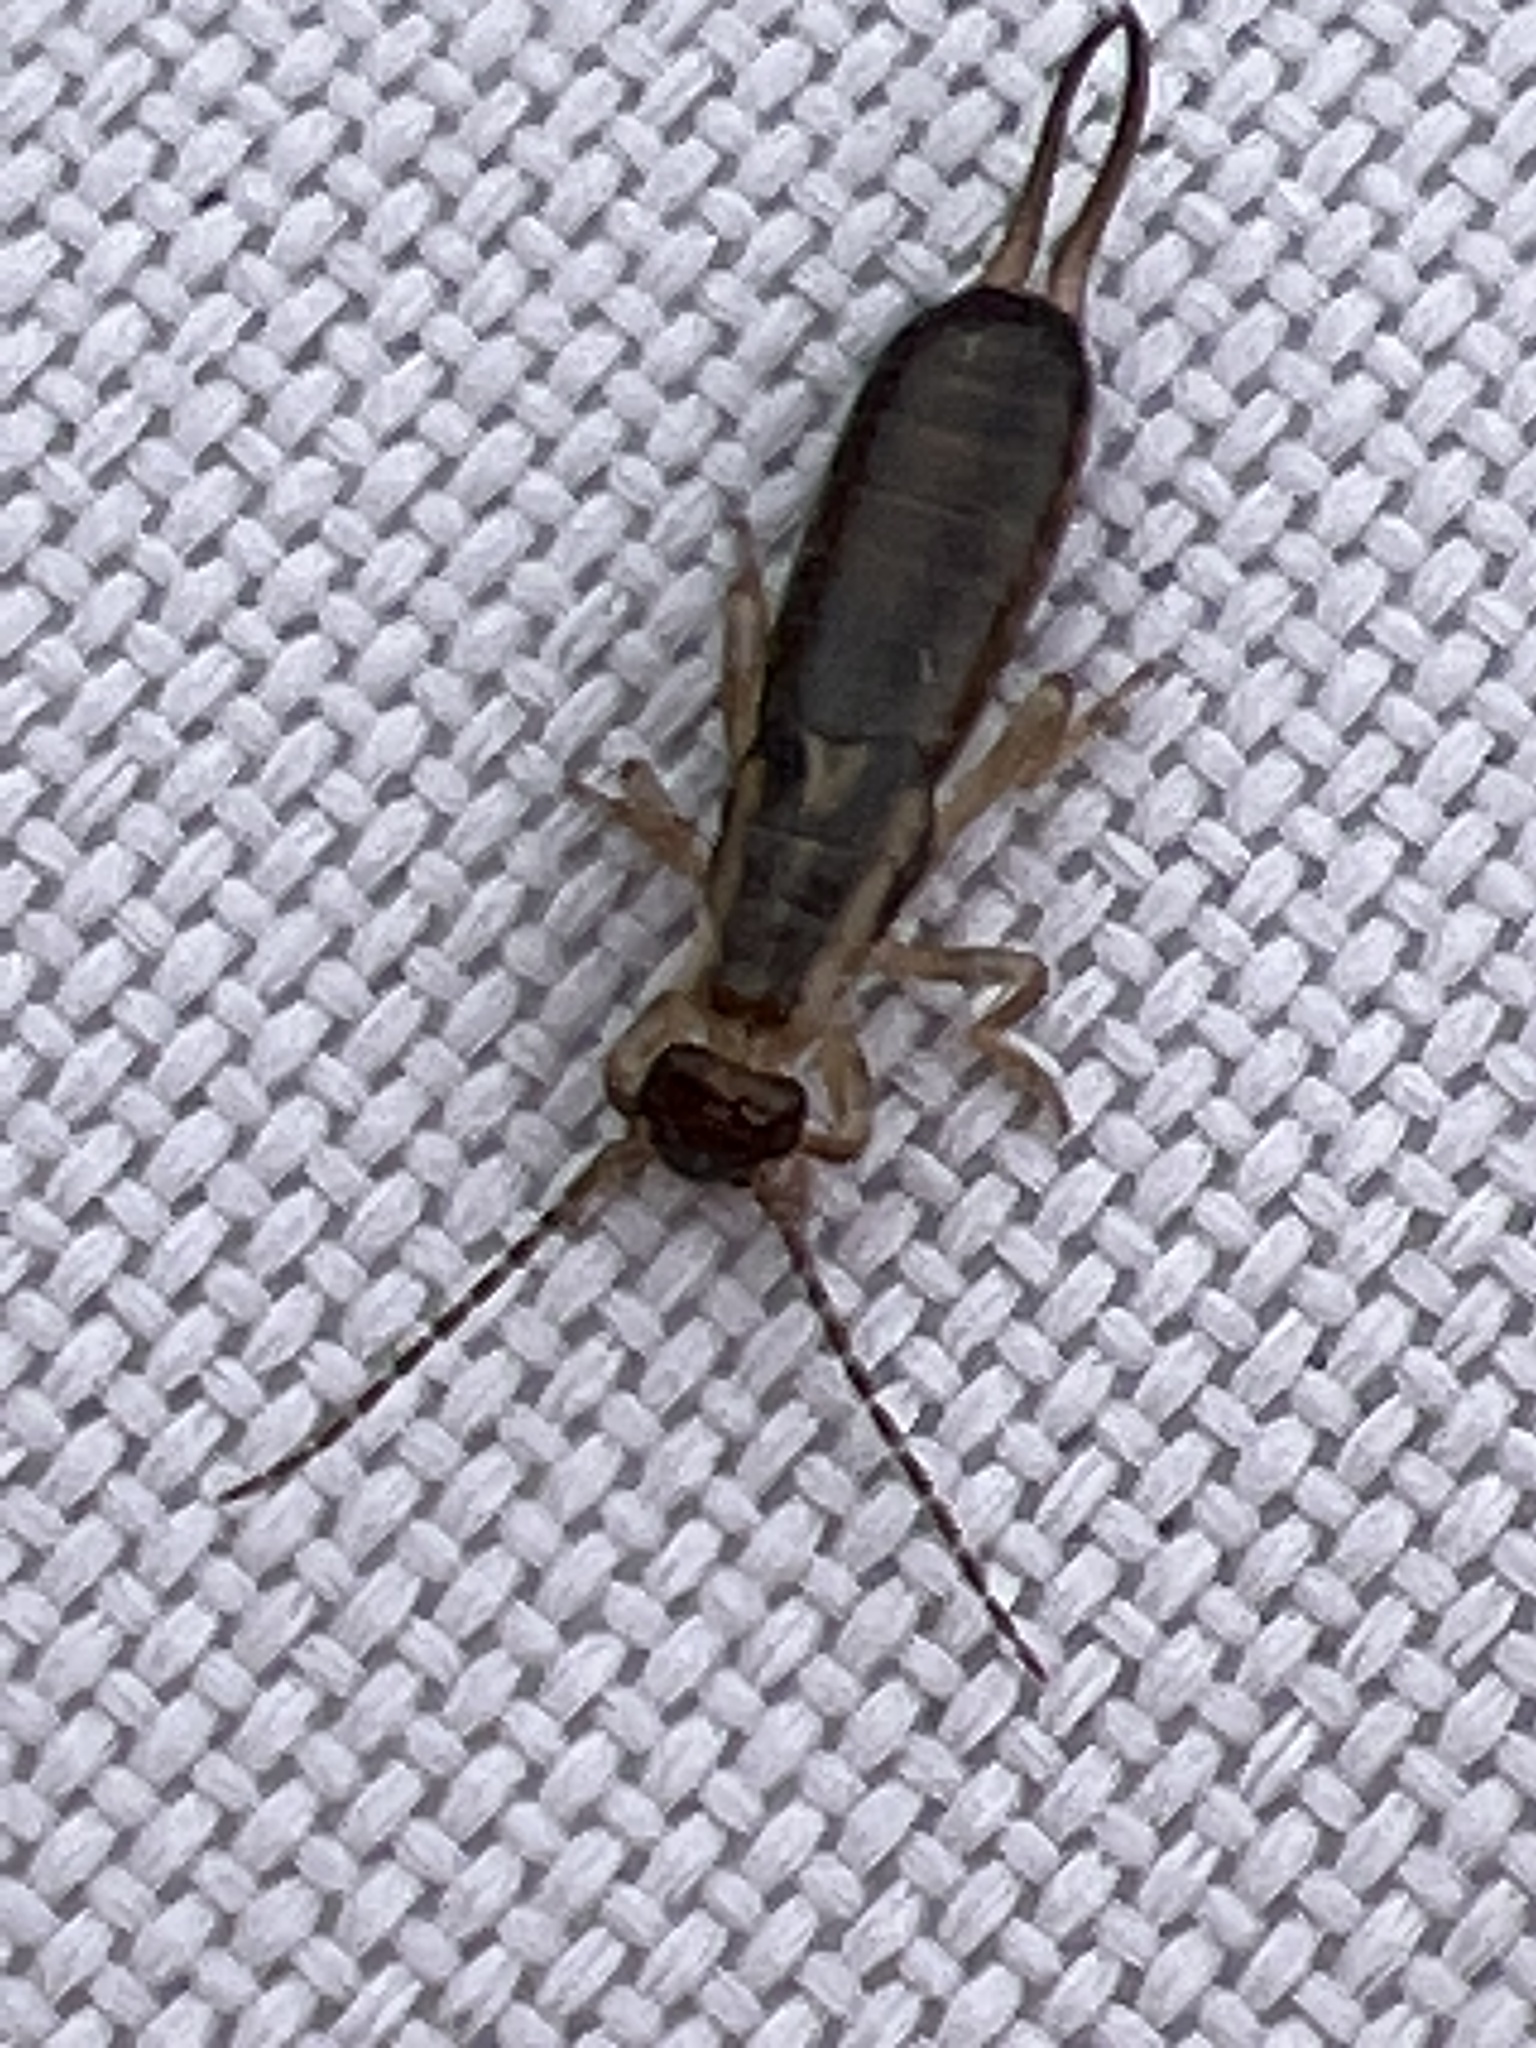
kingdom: Animalia
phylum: Arthropoda
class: Insecta
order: Dermaptera
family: Forficulidae
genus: Forficula
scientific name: Forficula
